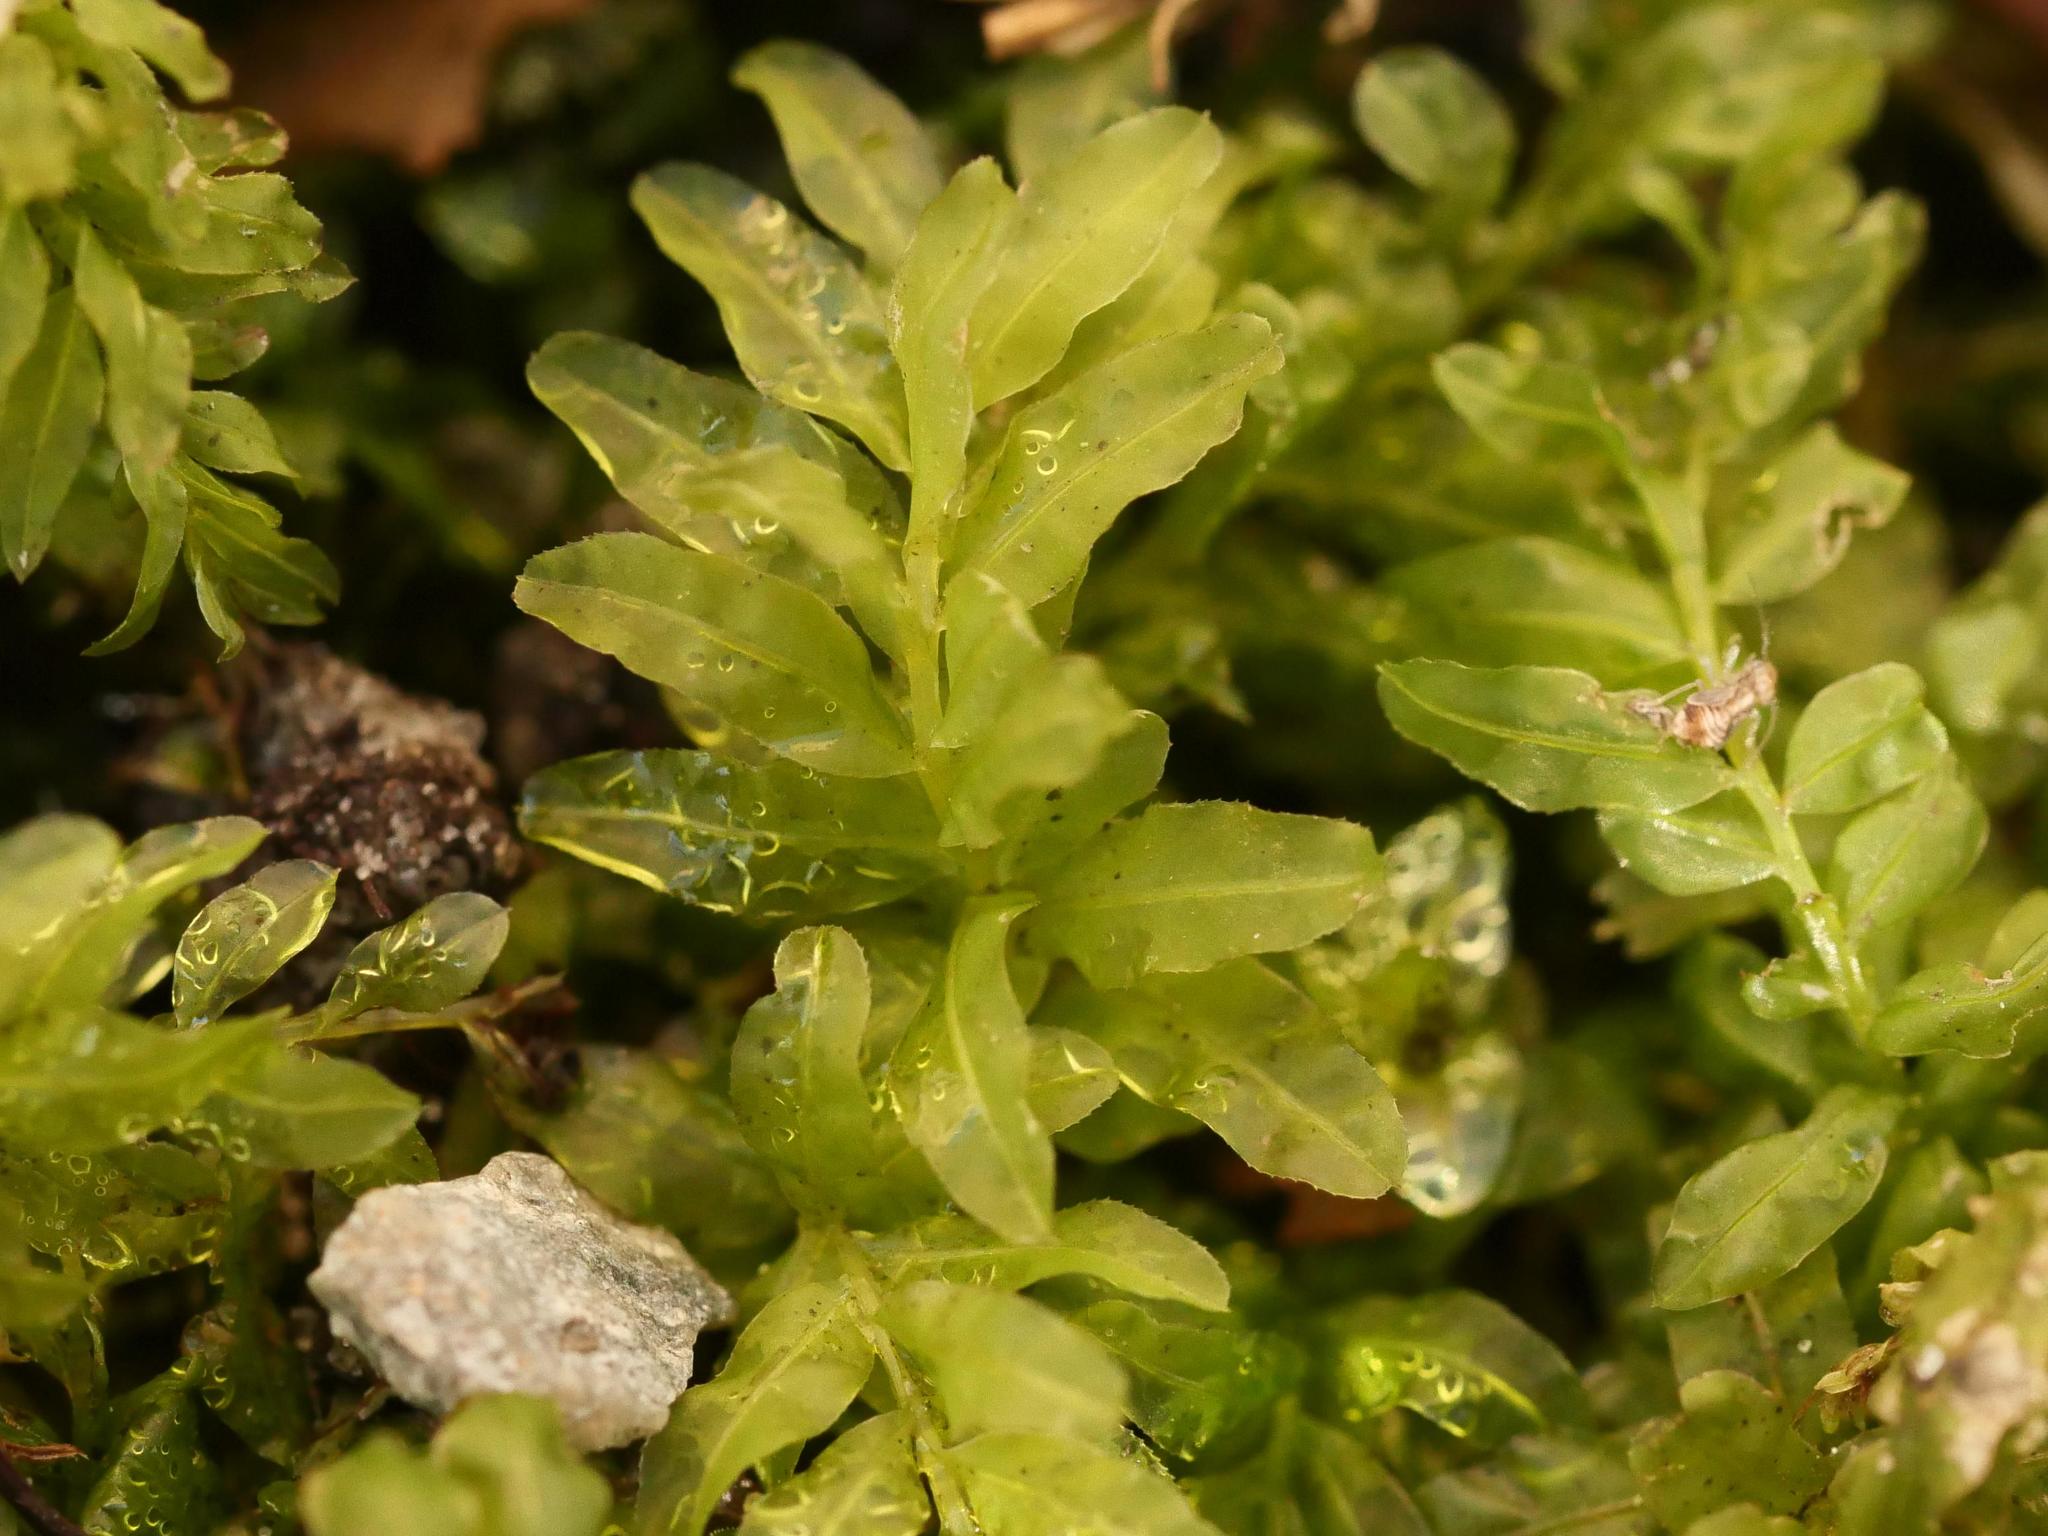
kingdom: Plantae
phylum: Bryophyta
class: Bryopsida
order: Bryales
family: Mniaceae
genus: Plagiomnium
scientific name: Plagiomnium undulatum
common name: Hart's-tongue thyme-moss
